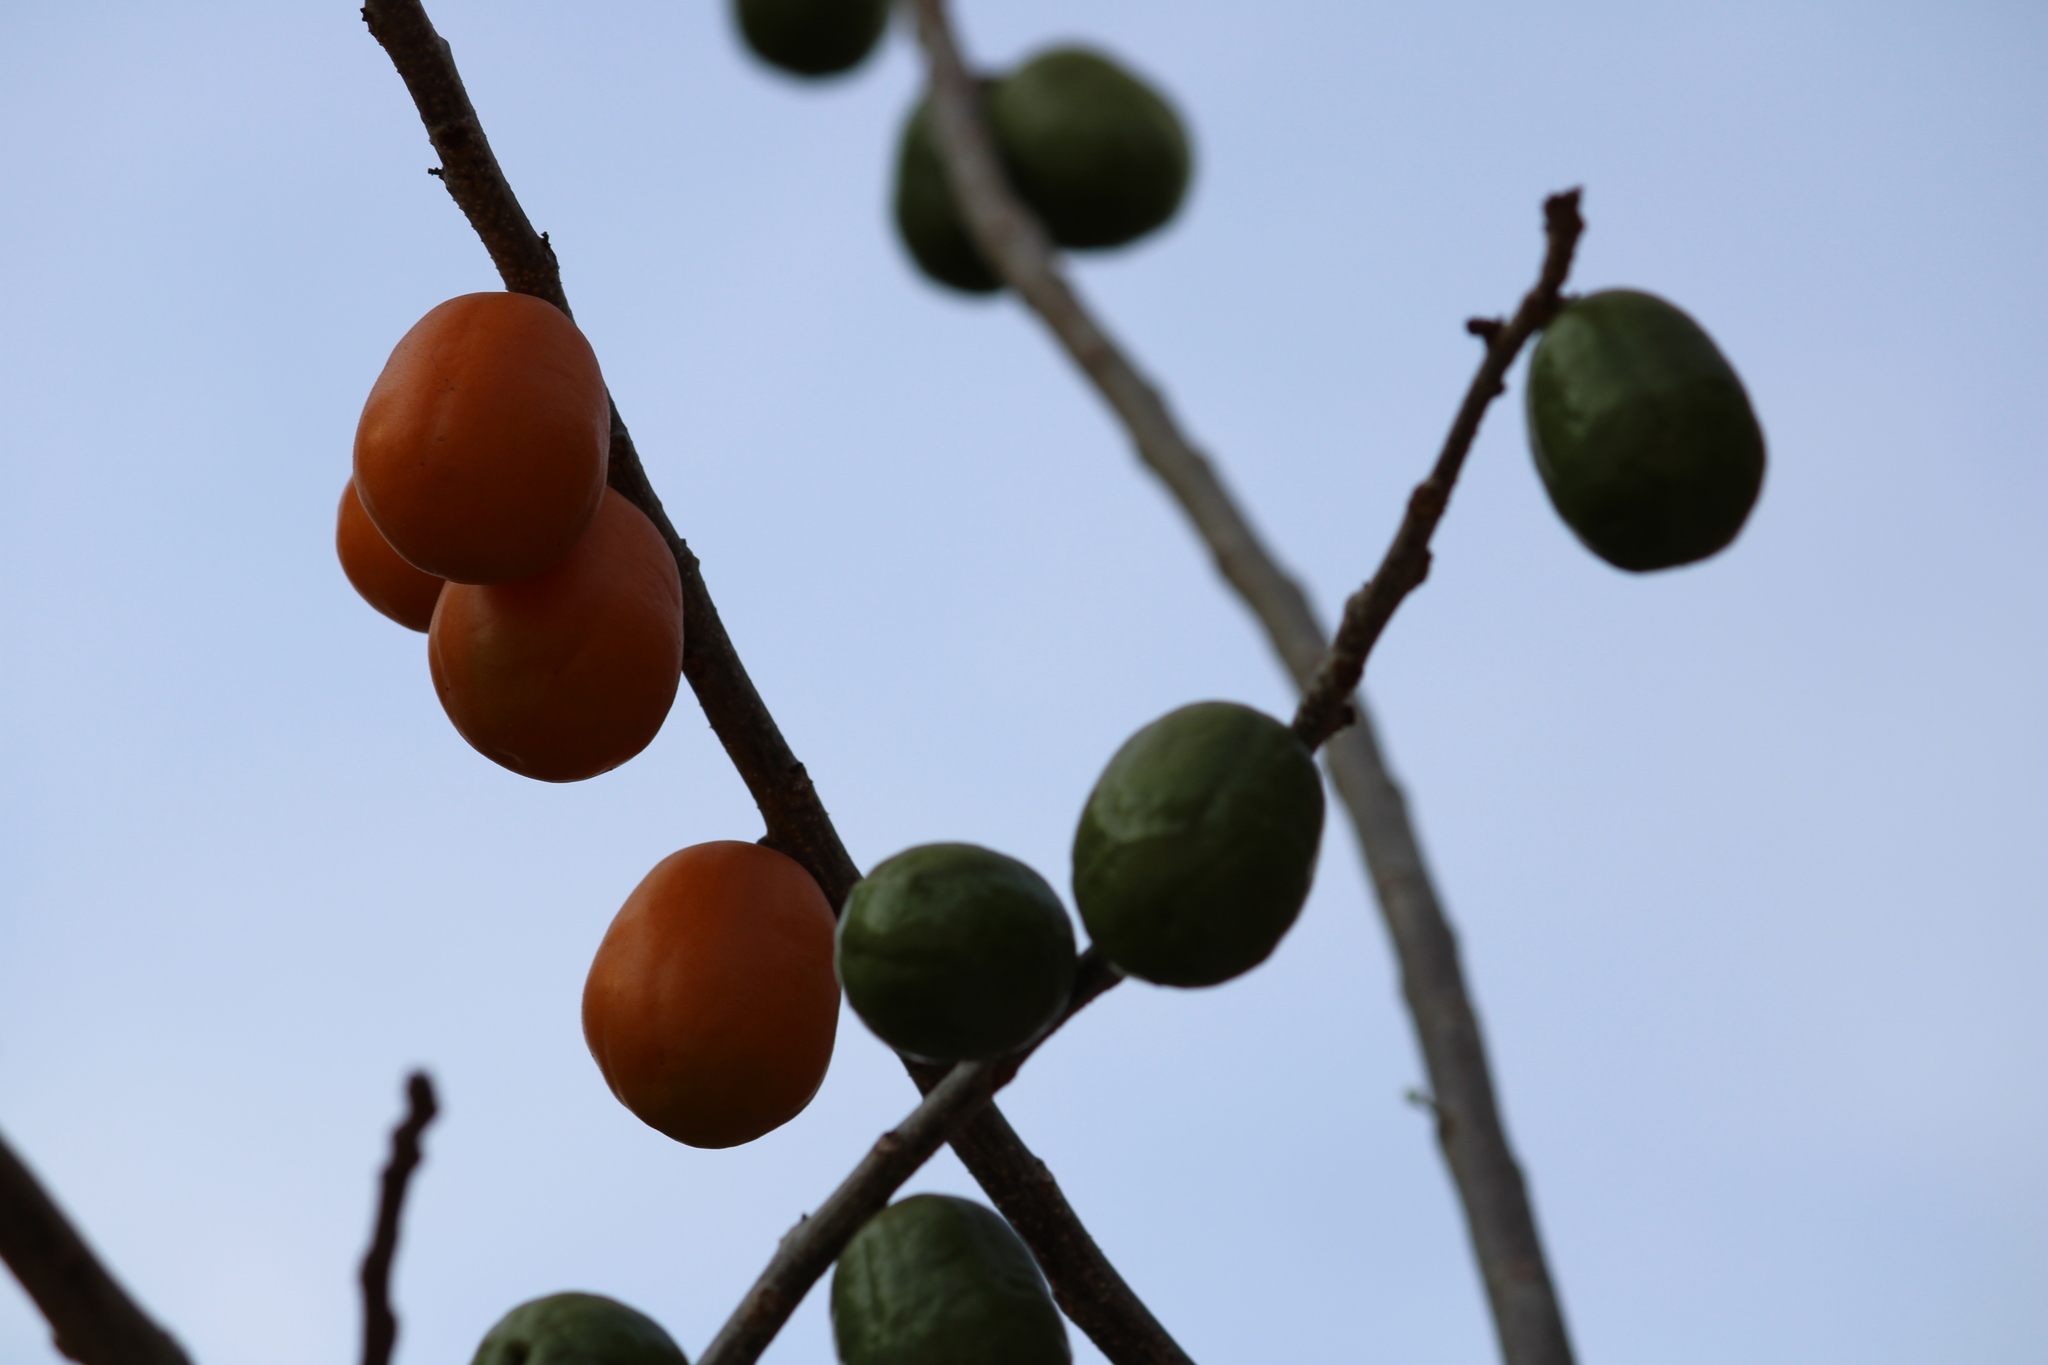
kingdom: Plantae
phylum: Tracheophyta
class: Magnoliopsida
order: Sapindales
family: Anacardiaceae
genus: Spondias
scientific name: Spondias purpurea
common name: Purple mombin
